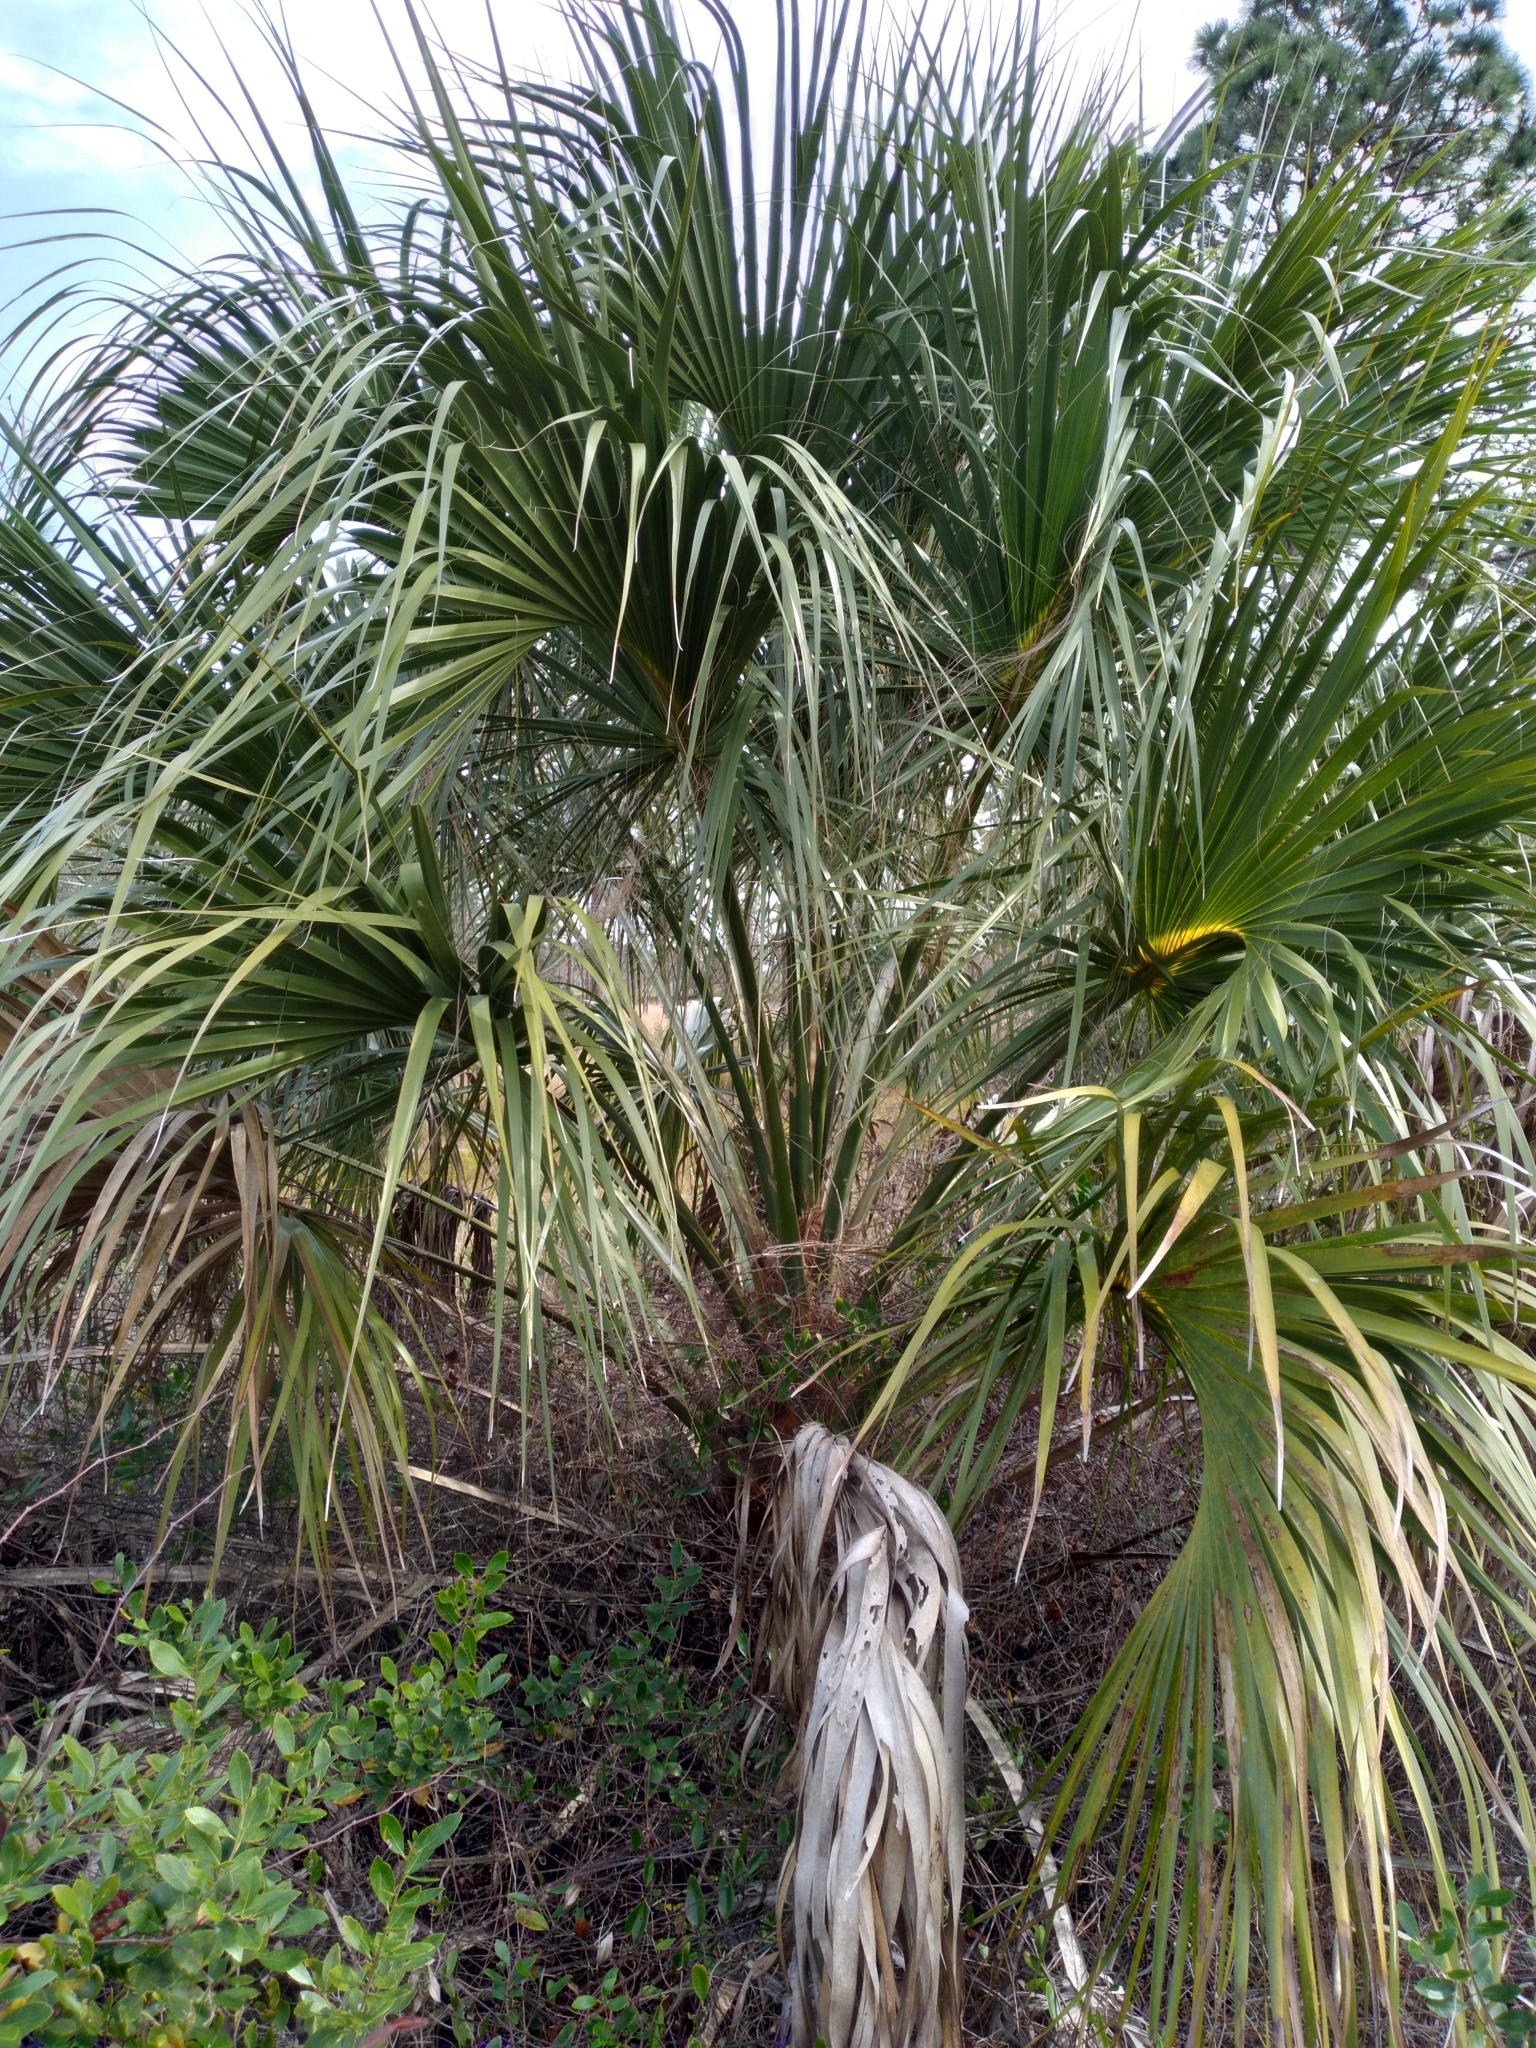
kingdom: Plantae
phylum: Tracheophyta
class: Liliopsida
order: Arecales
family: Arecaceae
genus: Sabal
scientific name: Sabal palmetto
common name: Blue palmetto
